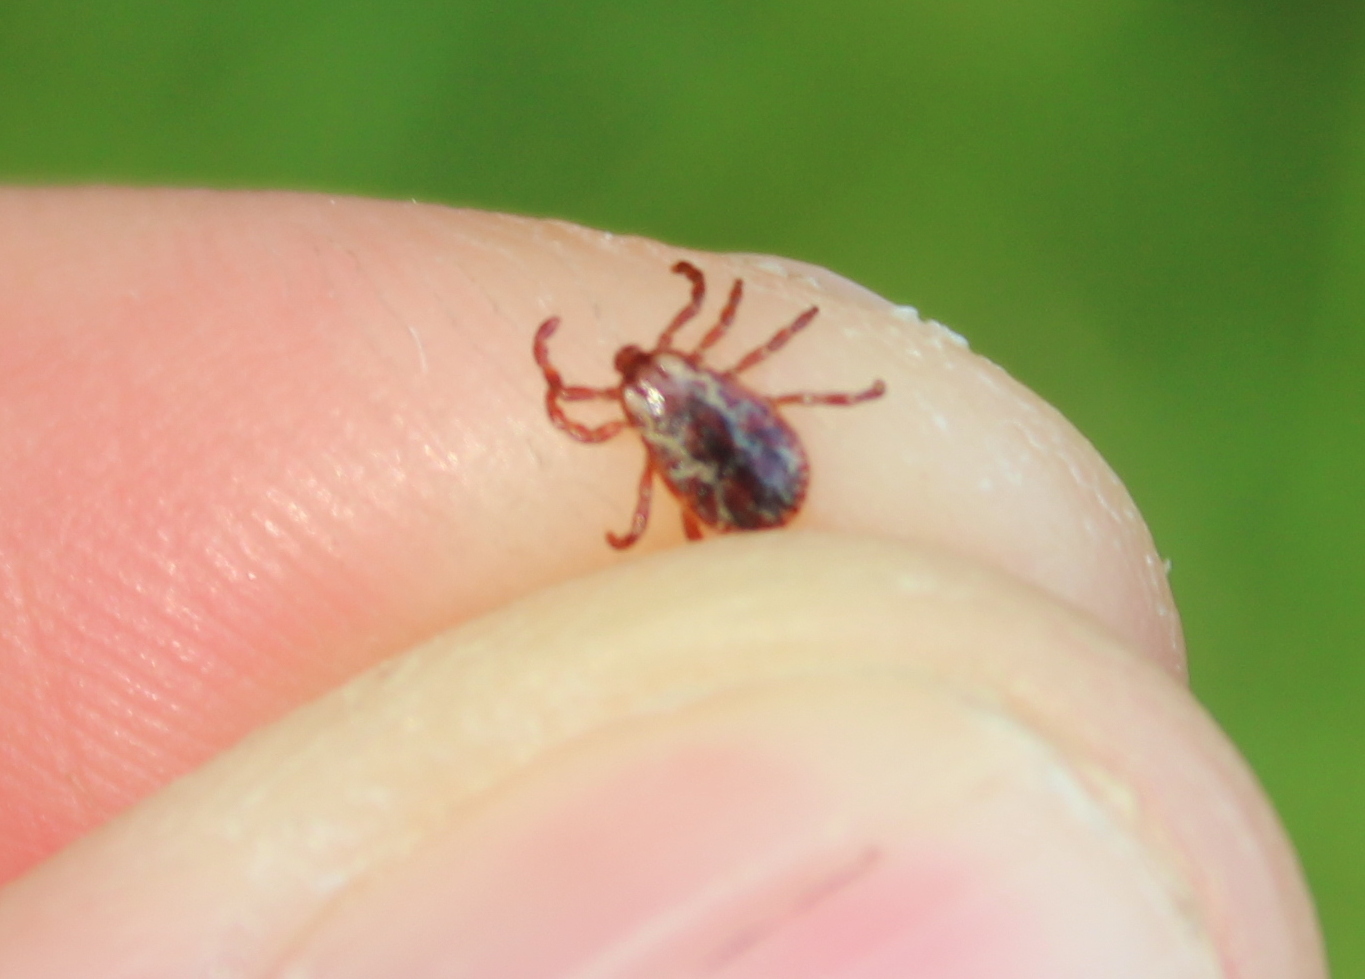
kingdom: Animalia
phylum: Arthropoda
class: Arachnida
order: Ixodida
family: Ixodidae
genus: Dermacentor
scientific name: Dermacentor variabilis
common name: American dog tick
